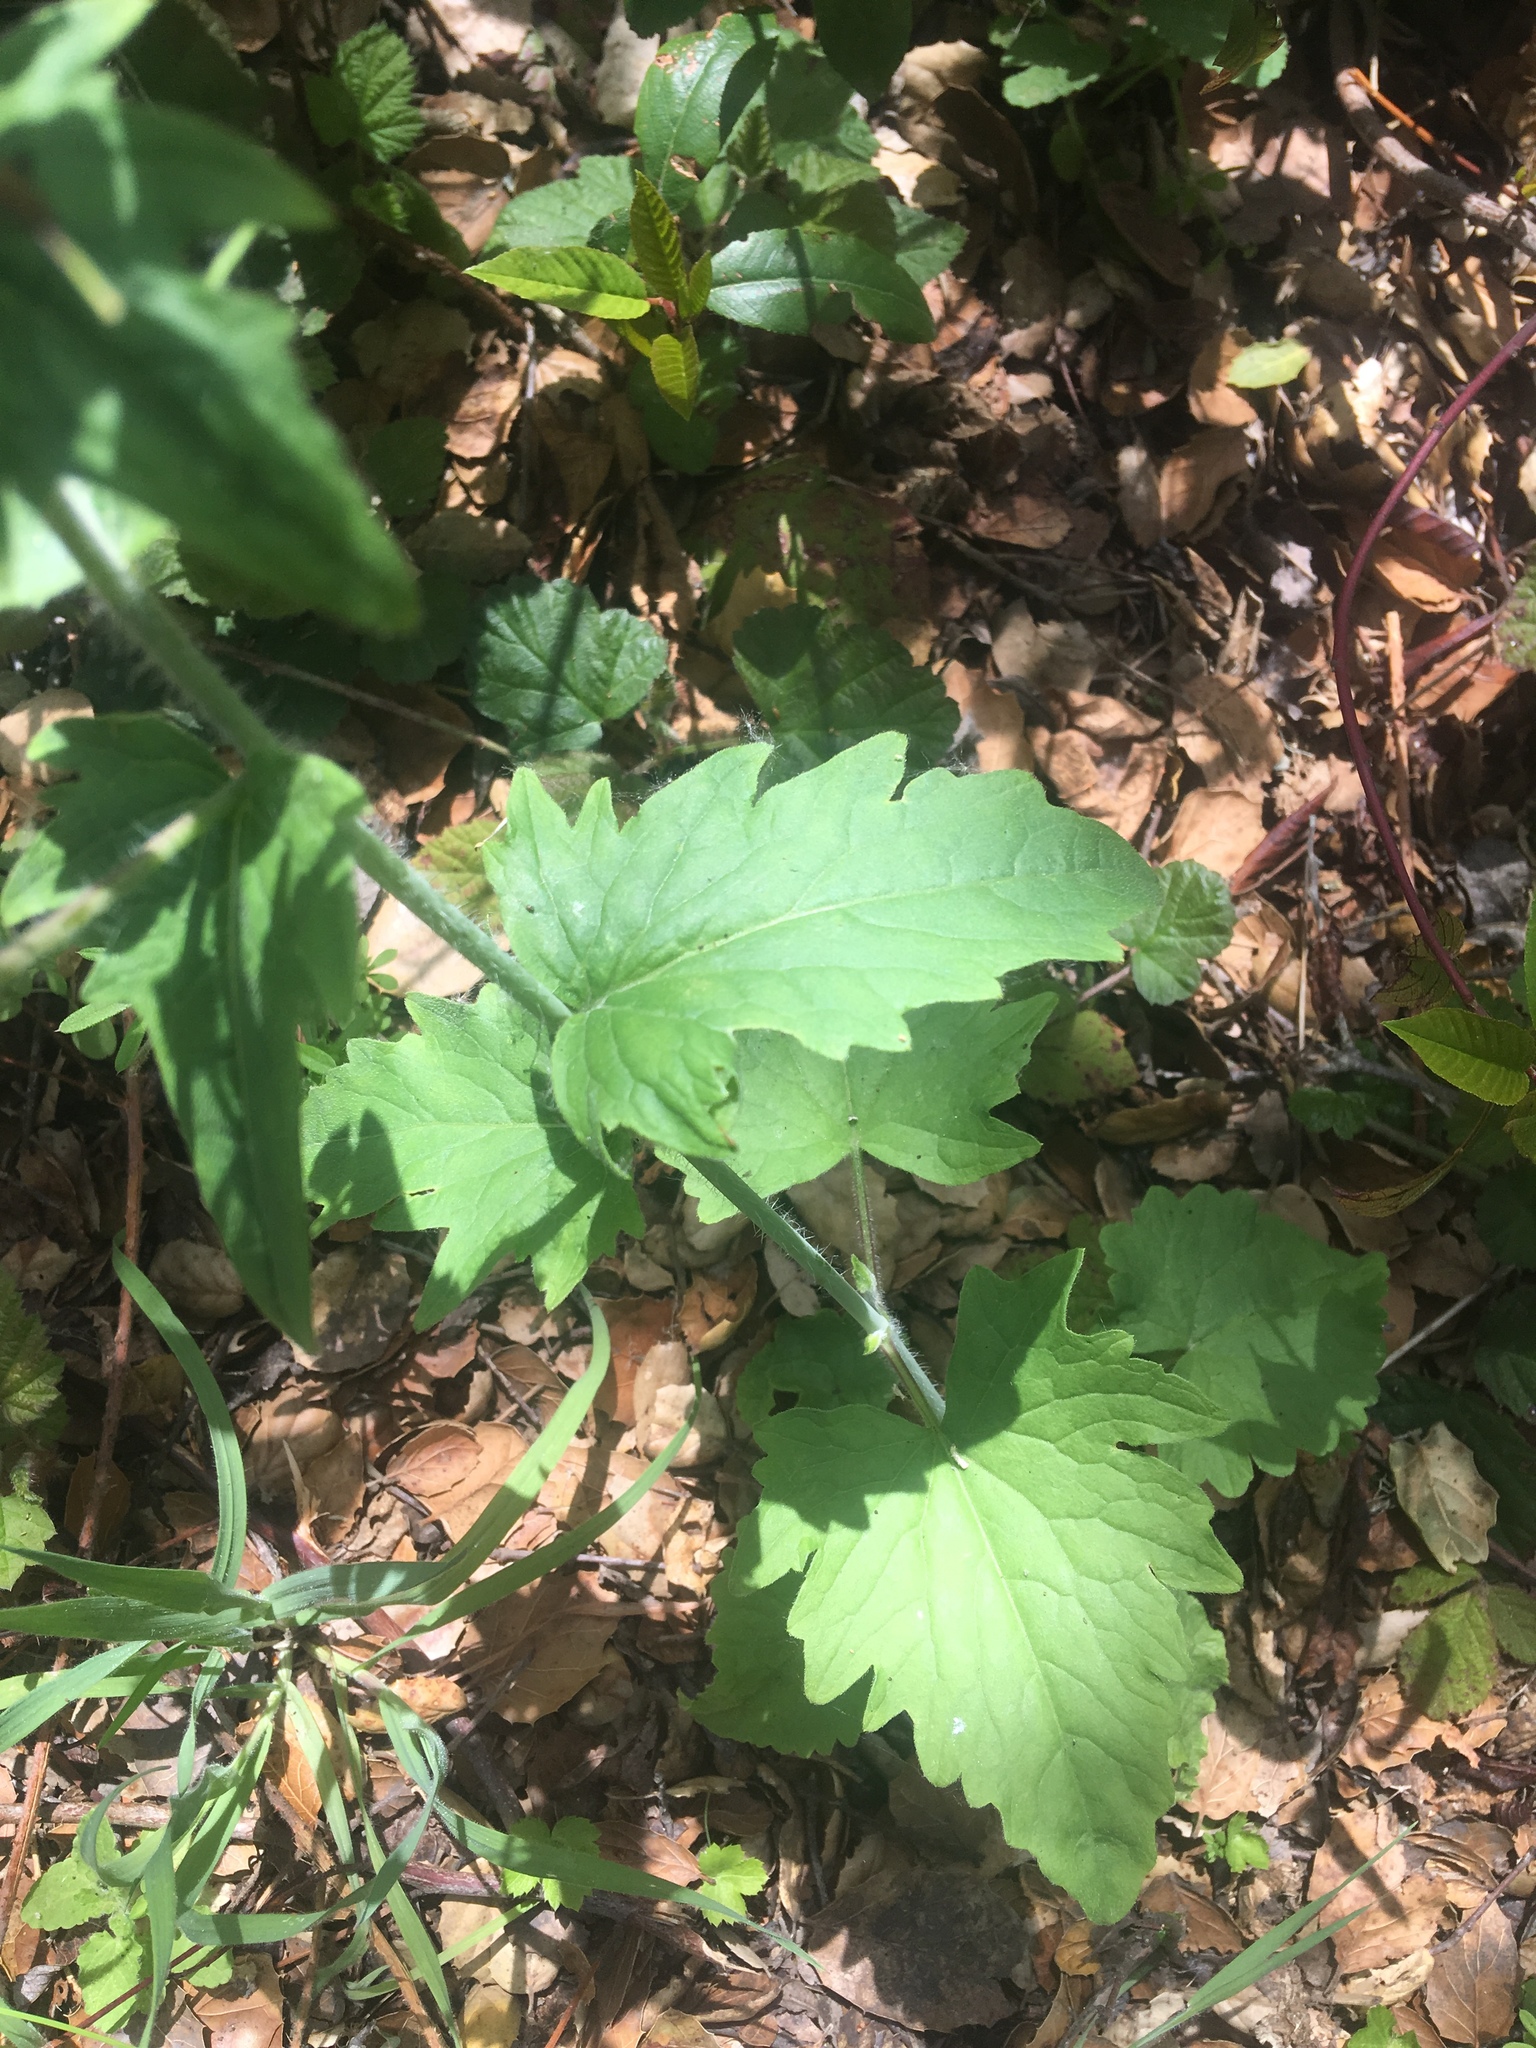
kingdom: Plantae
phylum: Tracheophyta
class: Magnoliopsida
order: Brassicales
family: Brassicaceae
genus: Lunaria
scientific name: Lunaria annua
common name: Honesty
